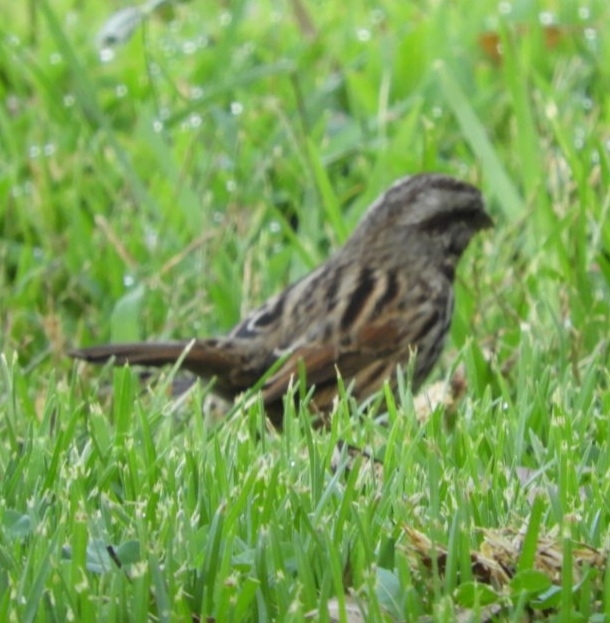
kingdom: Animalia
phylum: Chordata
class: Aves
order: Passeriformes
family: Passerellidae
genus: Melospiza
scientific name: Melospiza melodia
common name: Song sparrow
